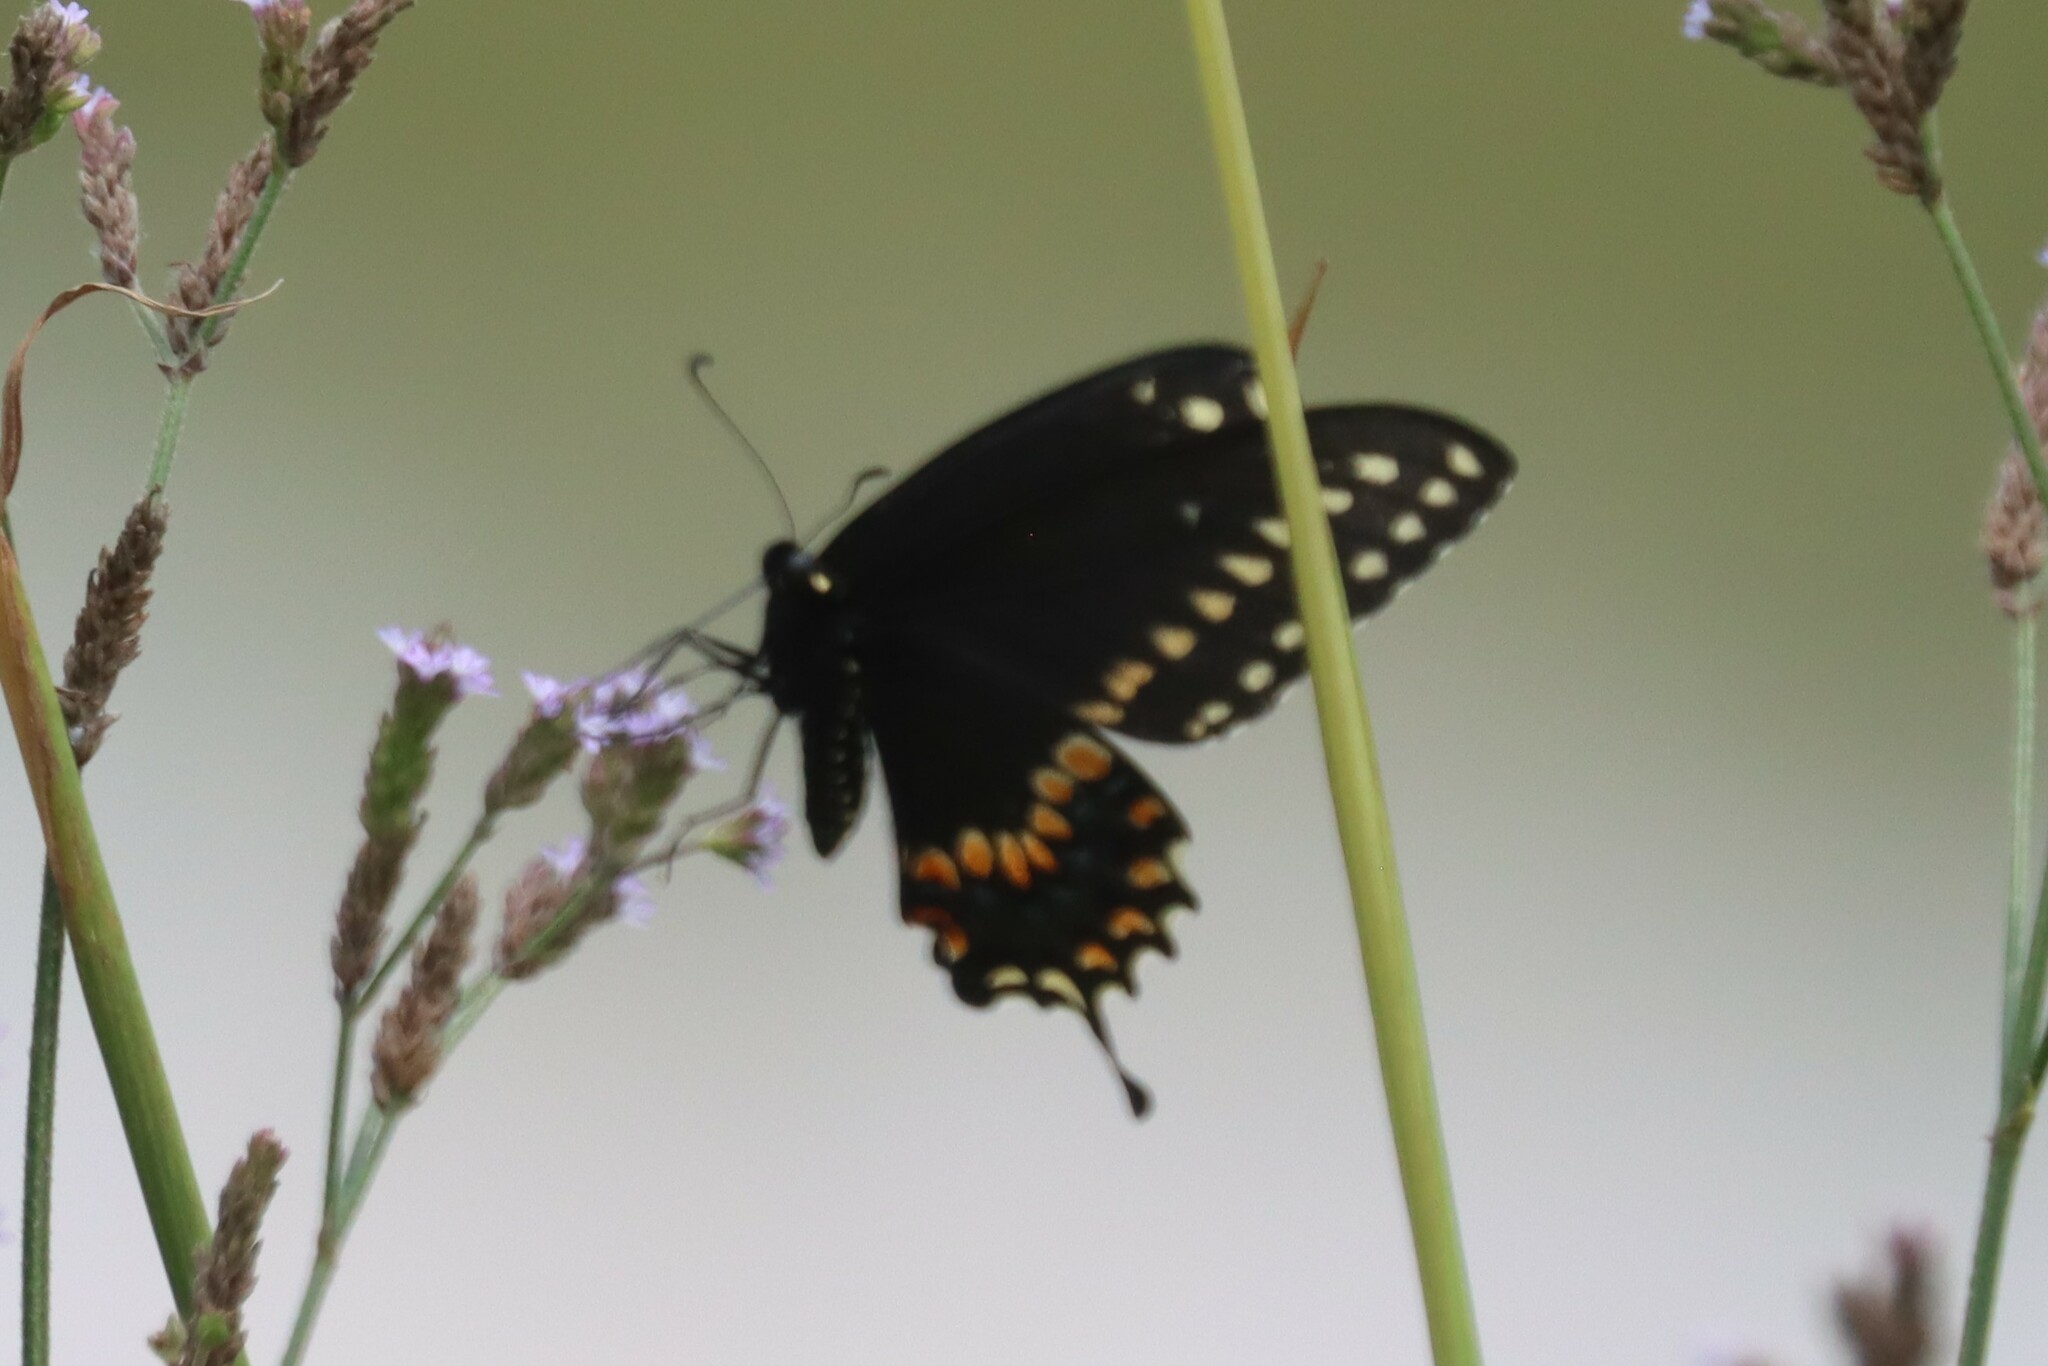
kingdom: Animalia
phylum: Arthropoda
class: Insecta
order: Lepidoptera
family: Papilionidae
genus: Papilio
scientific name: Papilio polyxenes
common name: Black swallowtail
